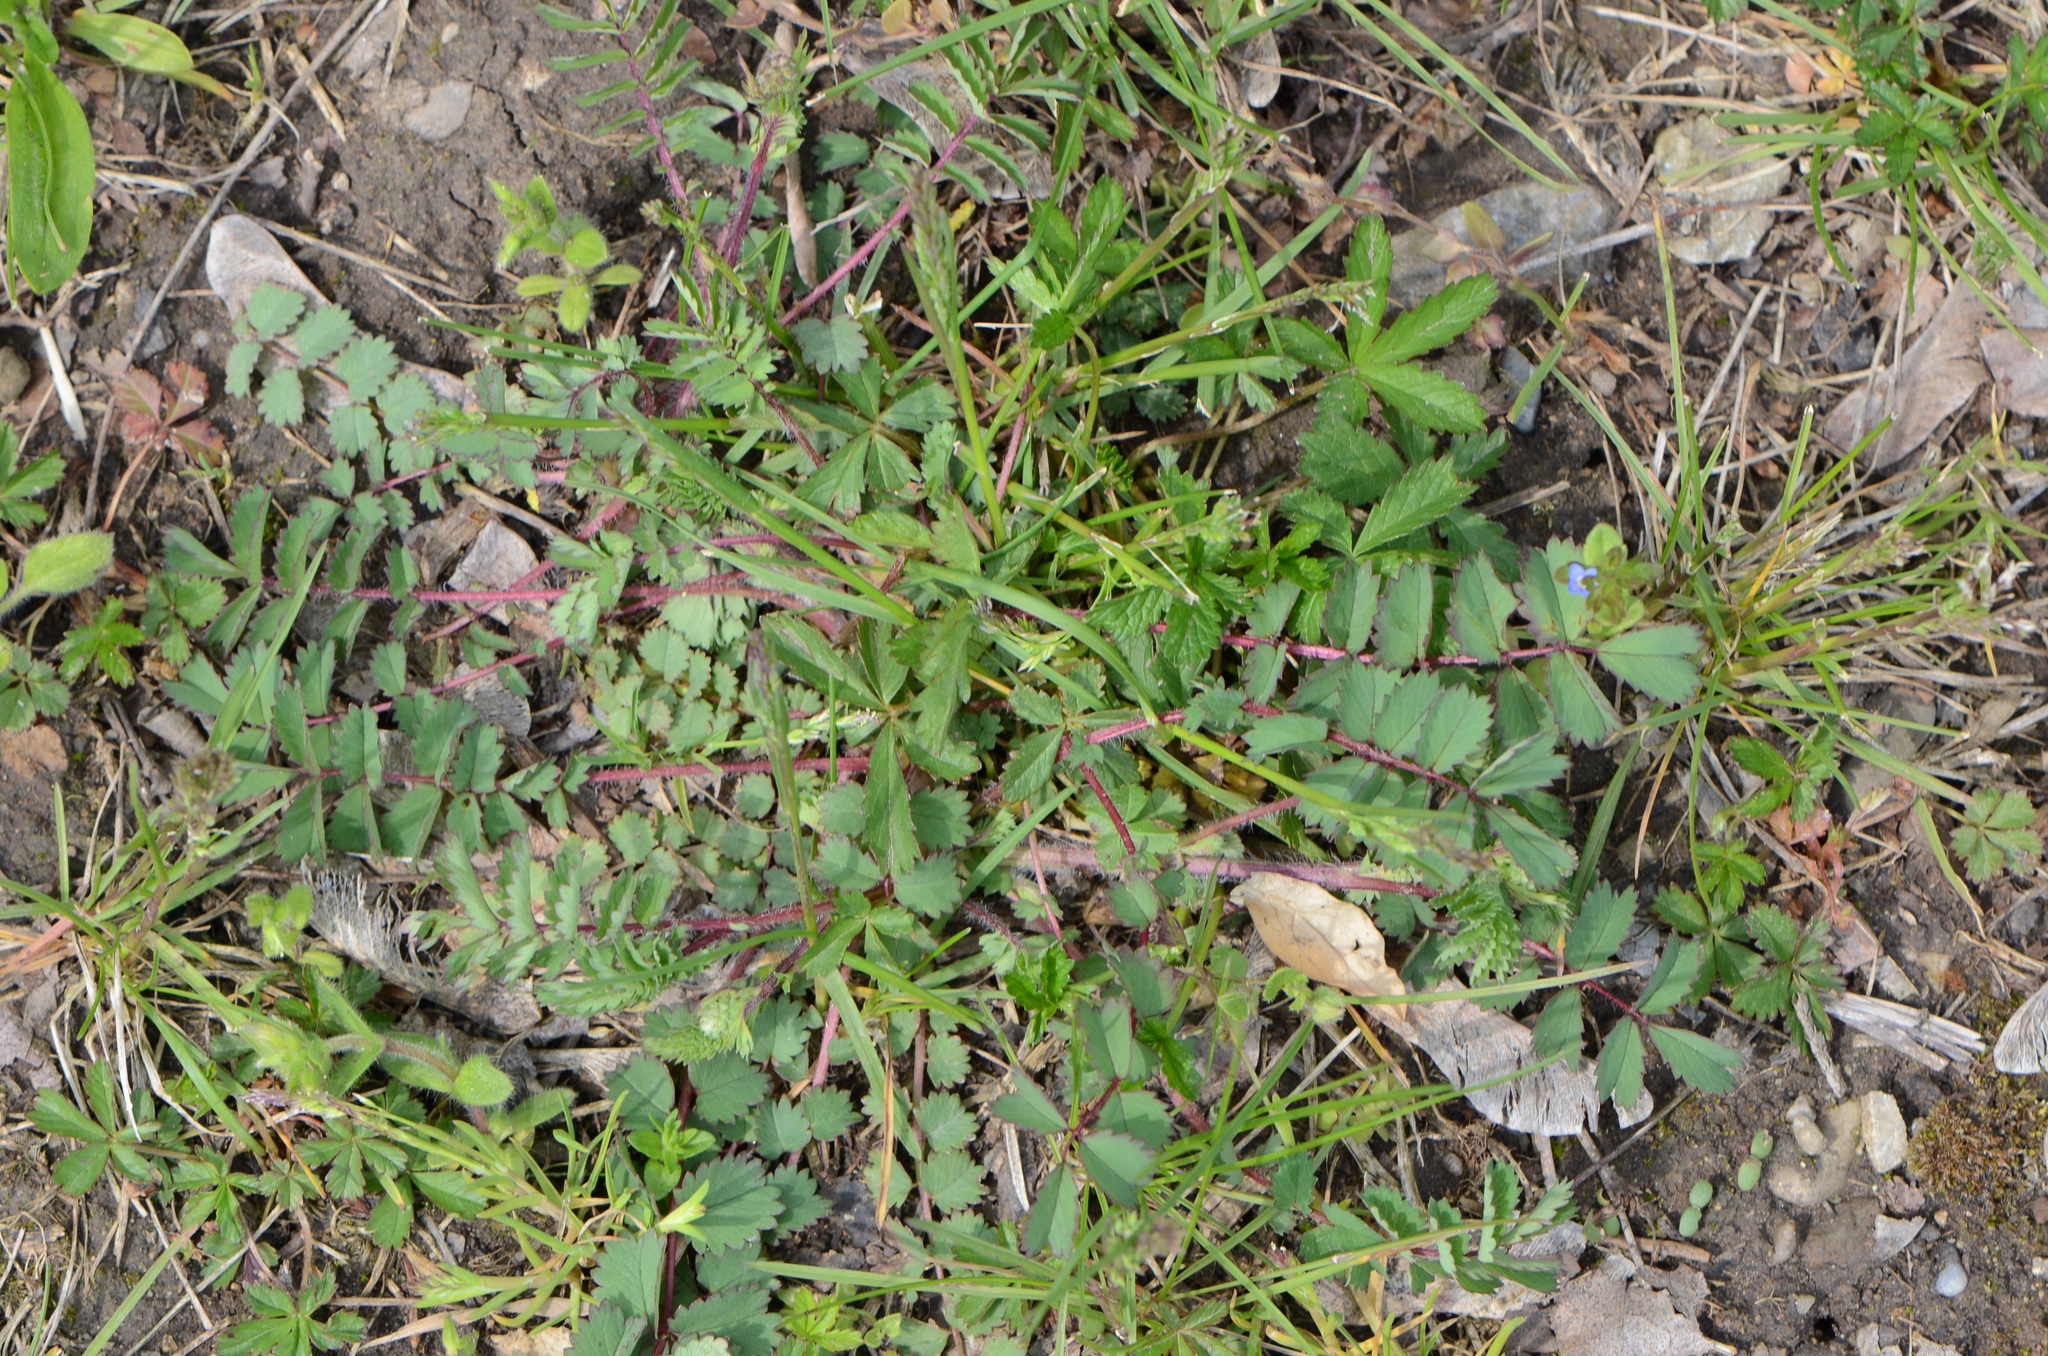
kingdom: Plantae
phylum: Tracheophyta
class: Magnoliopsida
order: Rosales
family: Rosaceae
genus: Poterium
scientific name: Poterium sanguisorba
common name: Salad burnet
